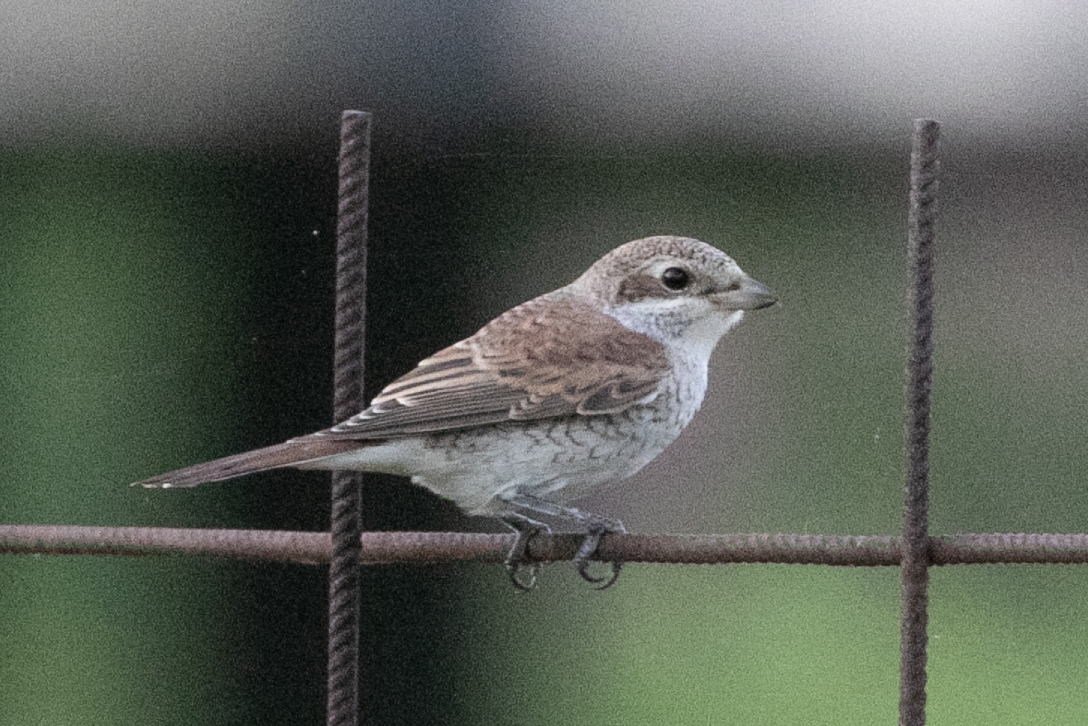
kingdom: Animalia
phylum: Chordata
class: Aves
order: Passeriformes
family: Laniidae
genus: Lanius
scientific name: Lanius collurio
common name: Red-backed shrike
